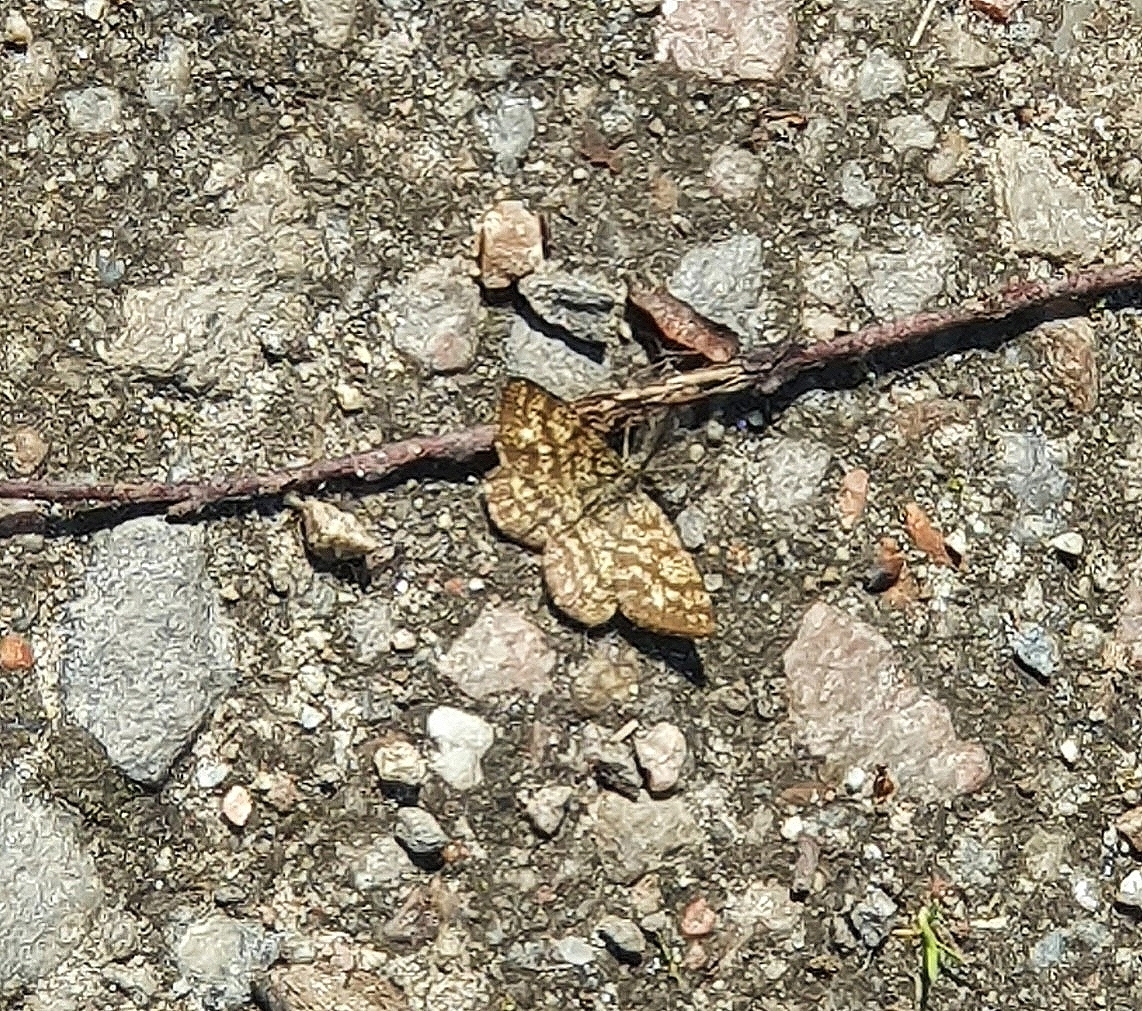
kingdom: Animalia
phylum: Arthropoda
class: Insecta
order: Lepidoptera
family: Geometridae
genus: Ematurga
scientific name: Ematurga atomaria
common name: Common heath
